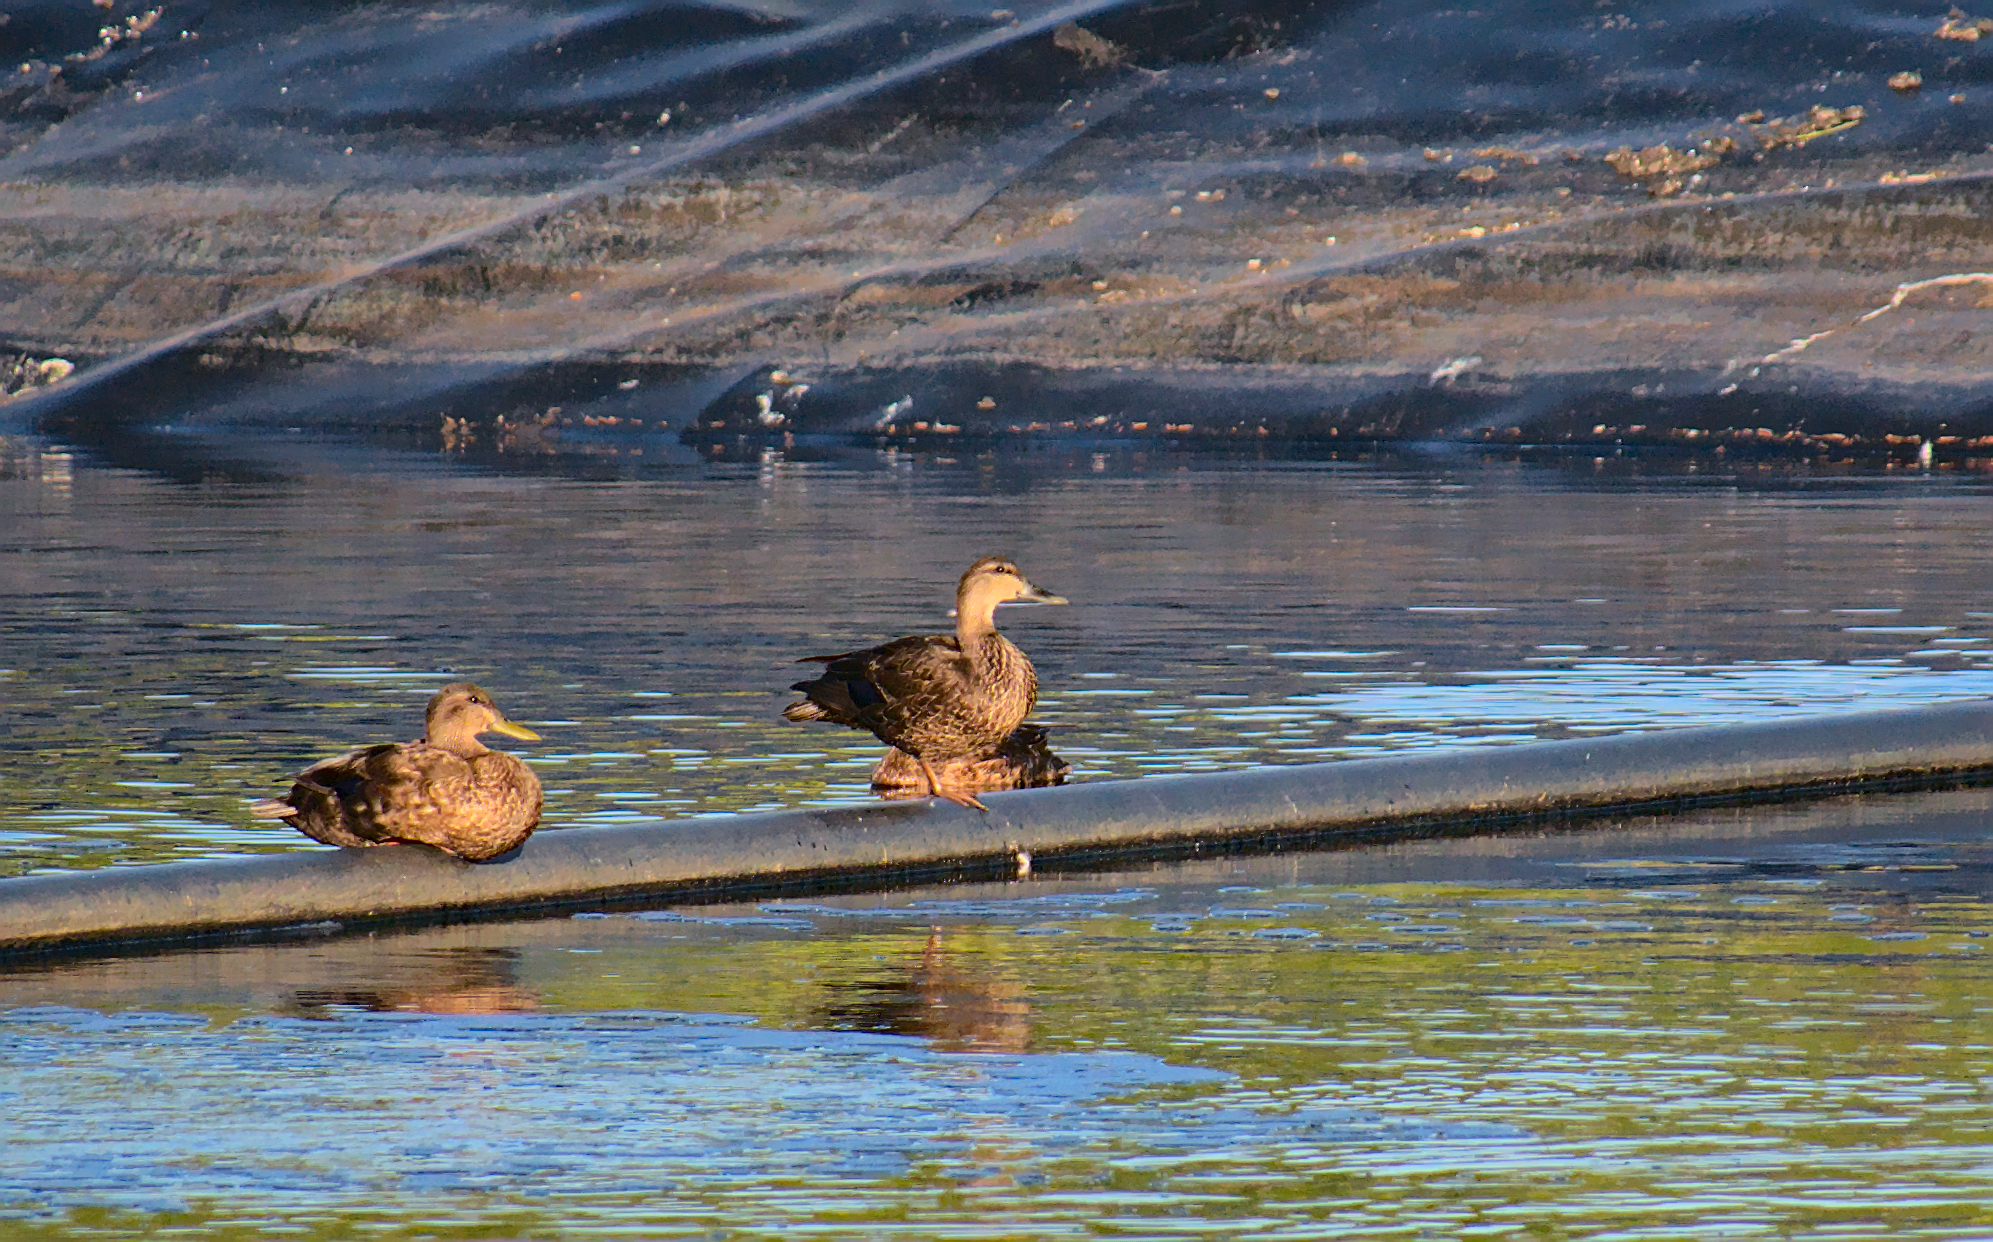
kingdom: Animalia
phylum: Chordata
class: Aves
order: Anseriformes
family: Anatidae
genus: Anas
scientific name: Anas rubripes
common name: American black duck
